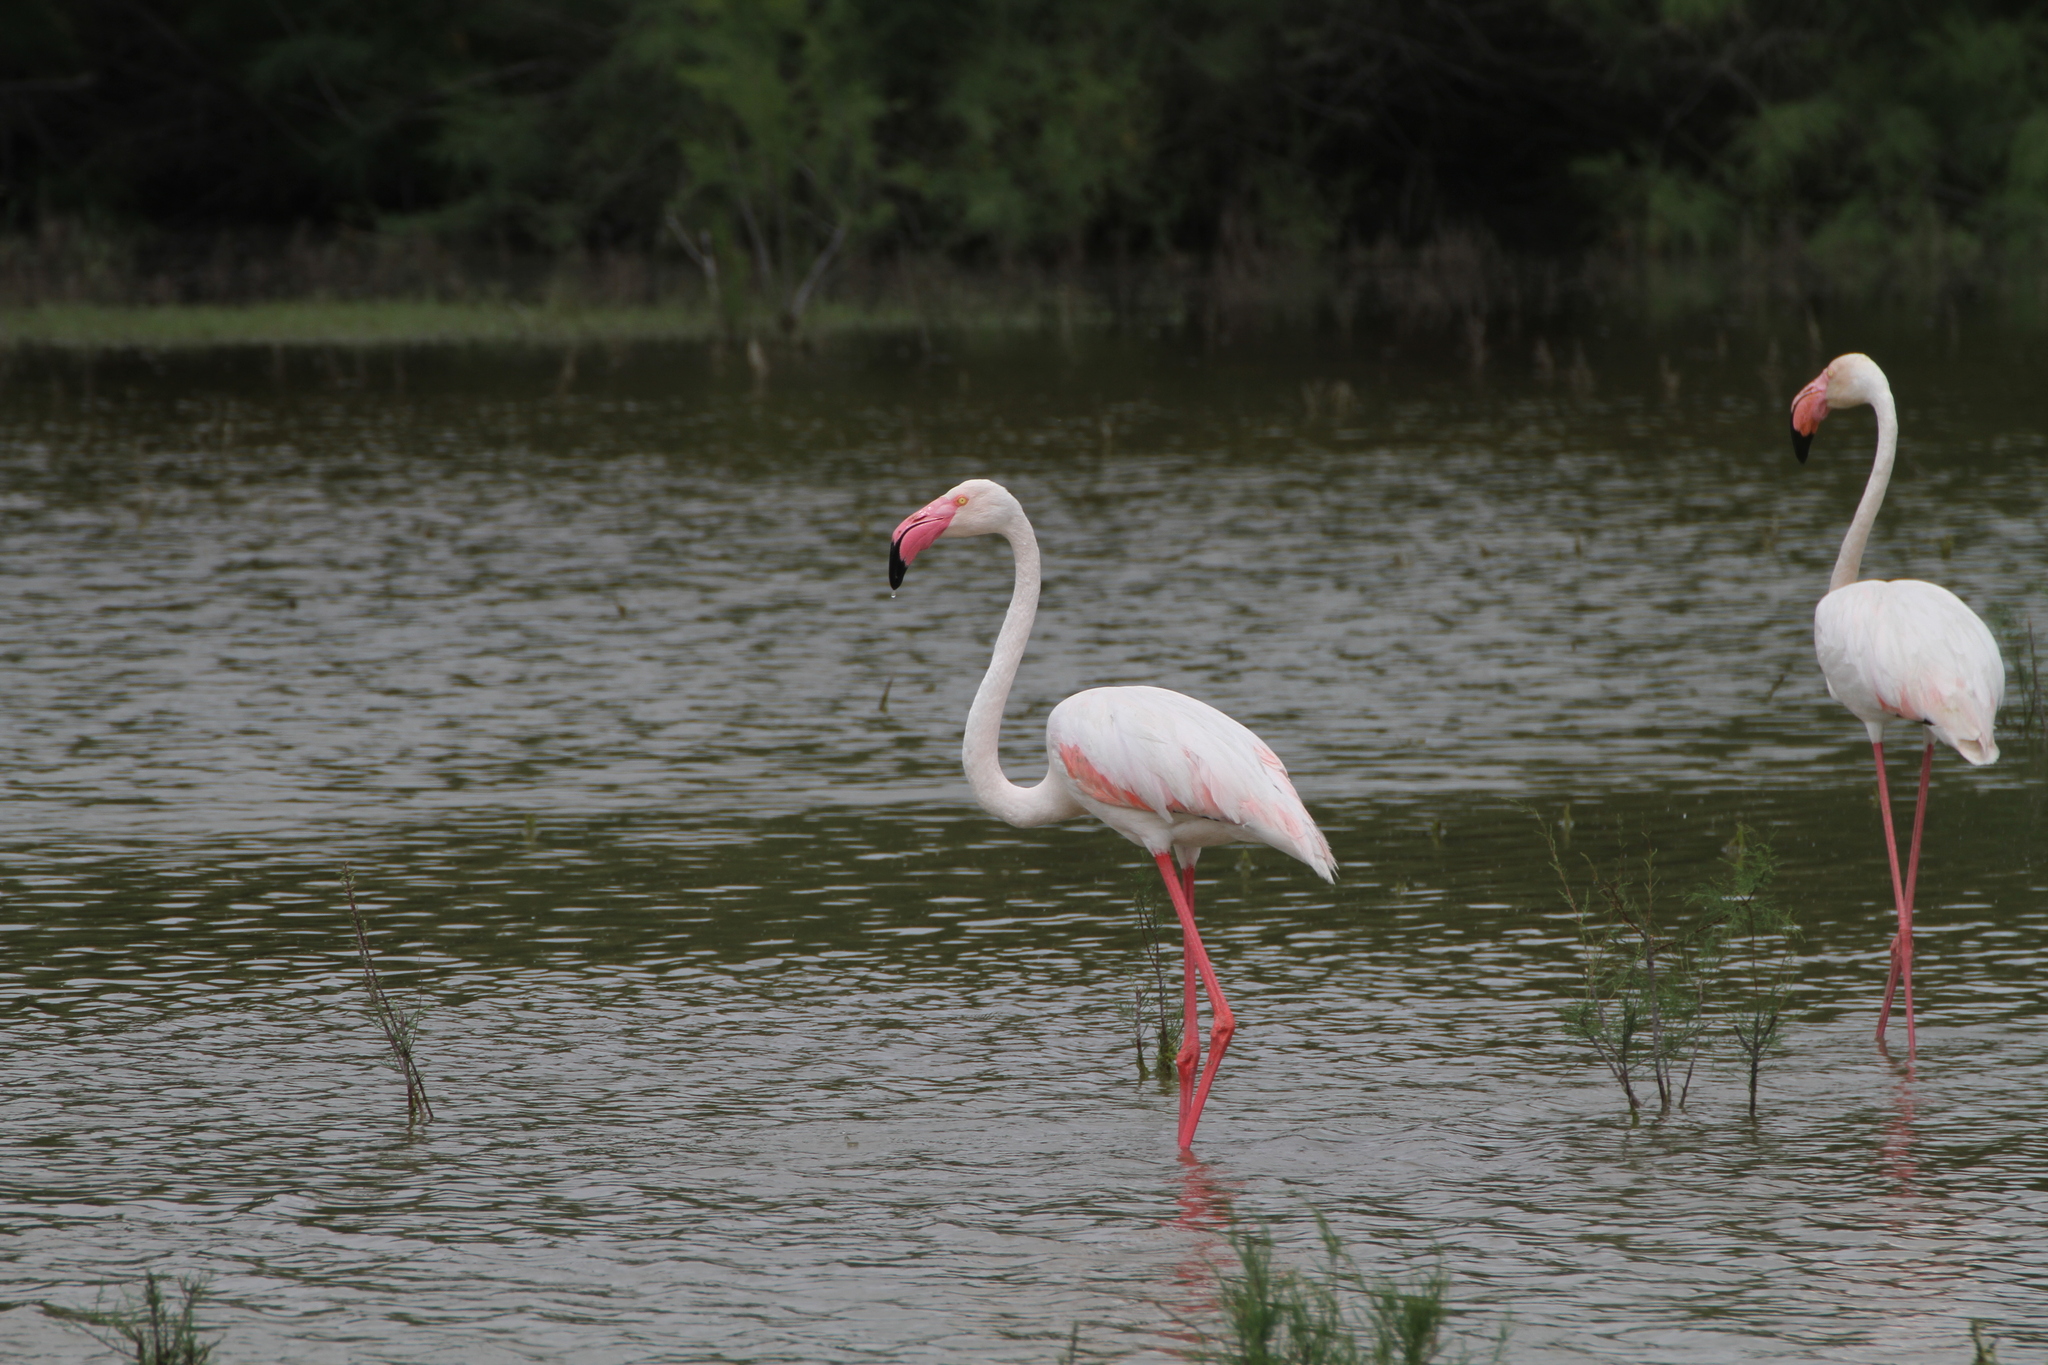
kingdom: Animalia
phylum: Chordata
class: Aves
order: Phoenicopteriformes
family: Phoenicopteridae
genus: Phoenicopterus
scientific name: Phoenicopterus roseus
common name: Greater flamingo
